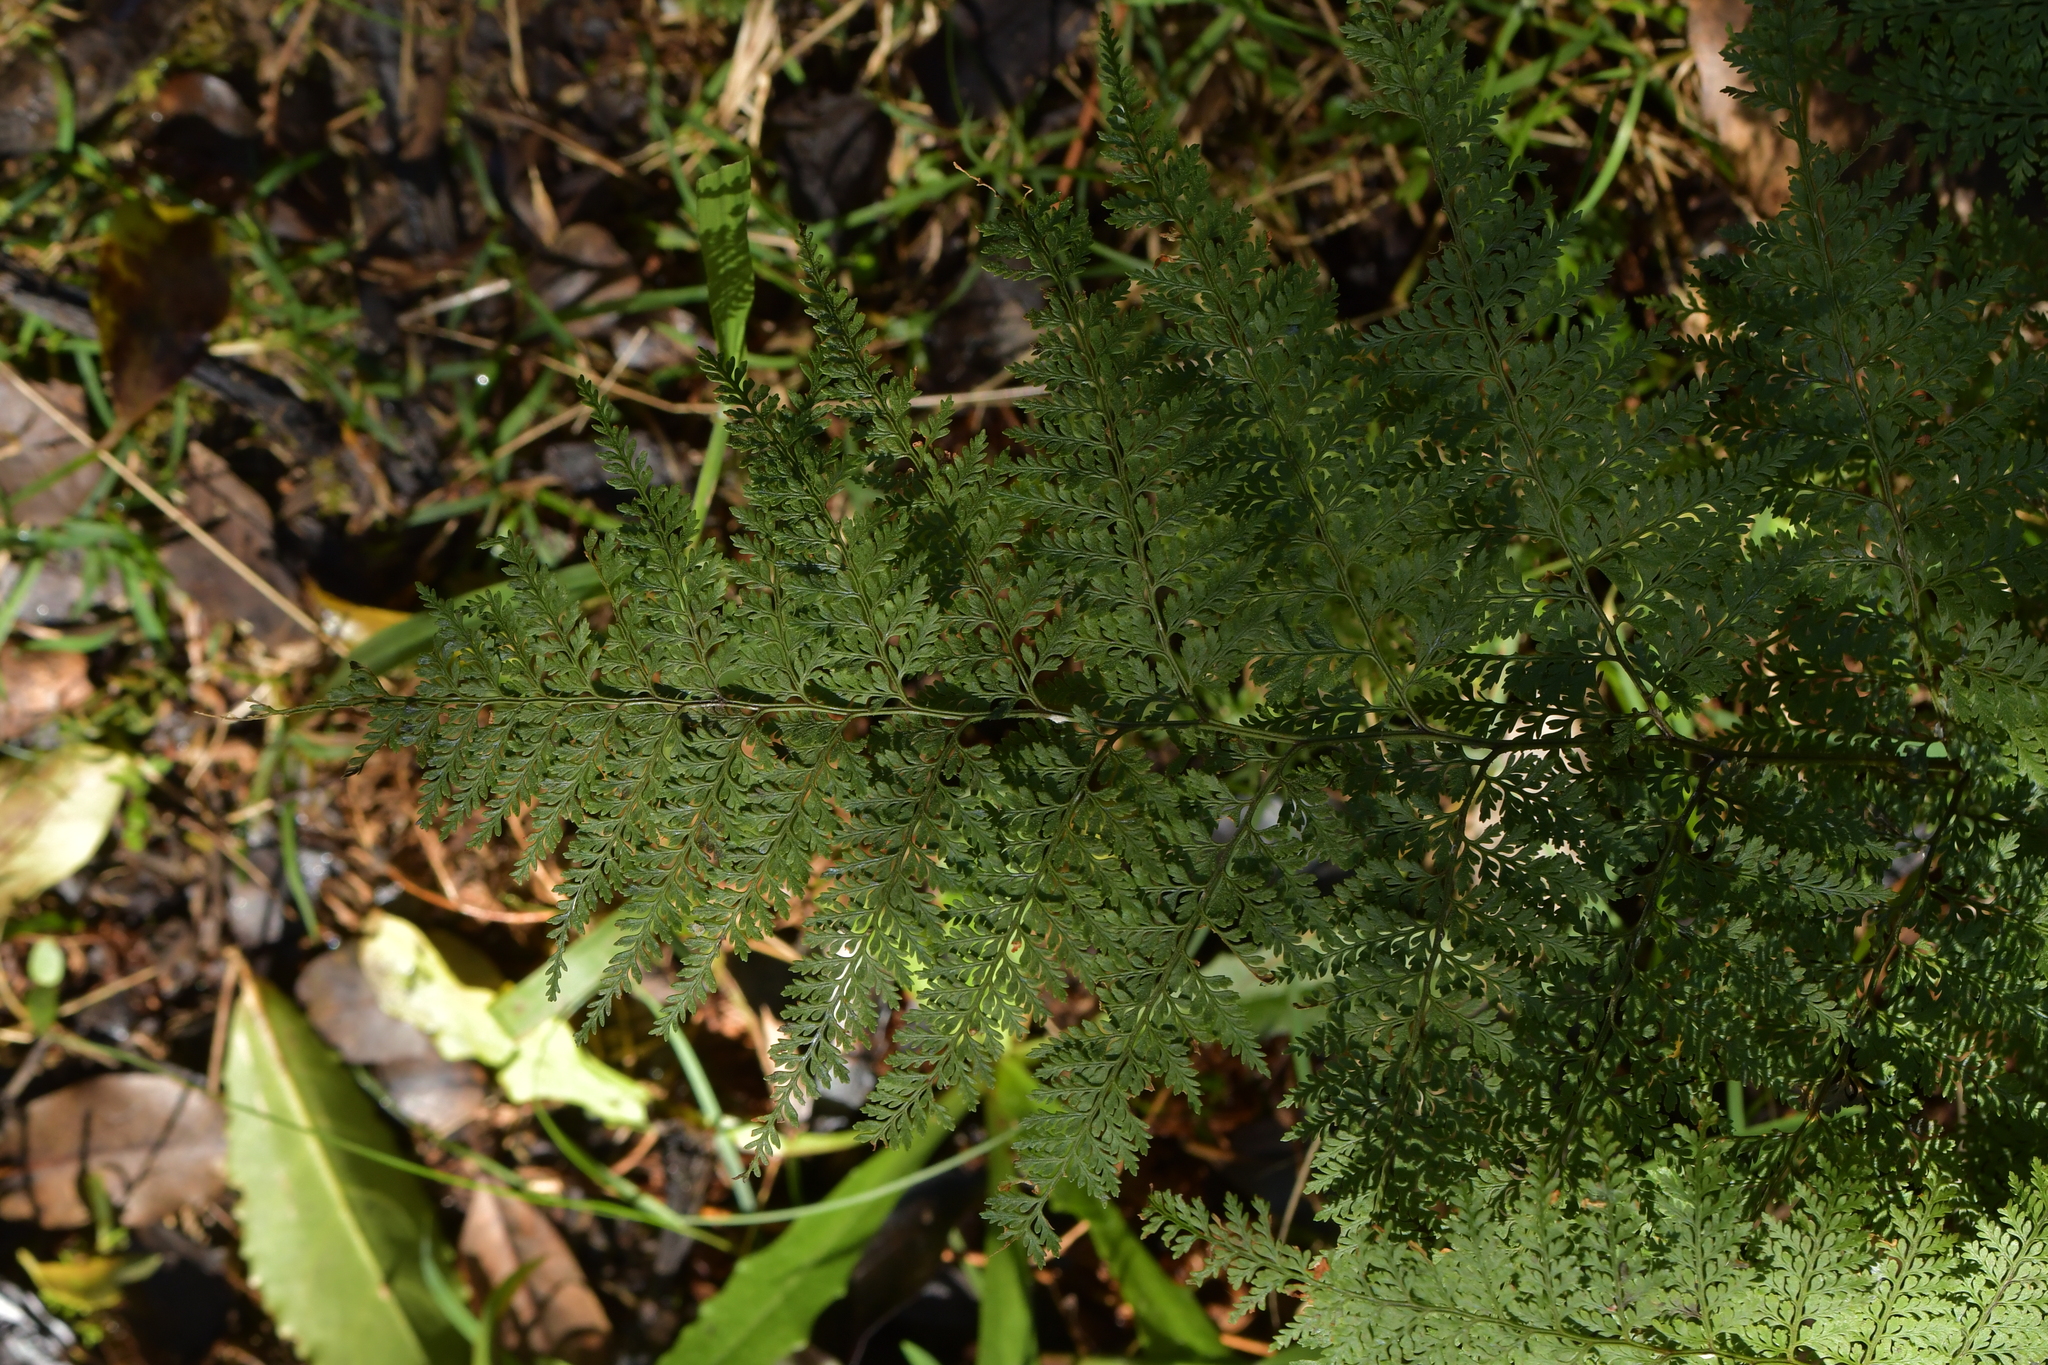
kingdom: Plantae
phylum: Tracheophyta
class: Polypodiopsida
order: Polypodiales
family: Dennstaedtiaceae
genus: Paesia
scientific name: Paesia scaberula
